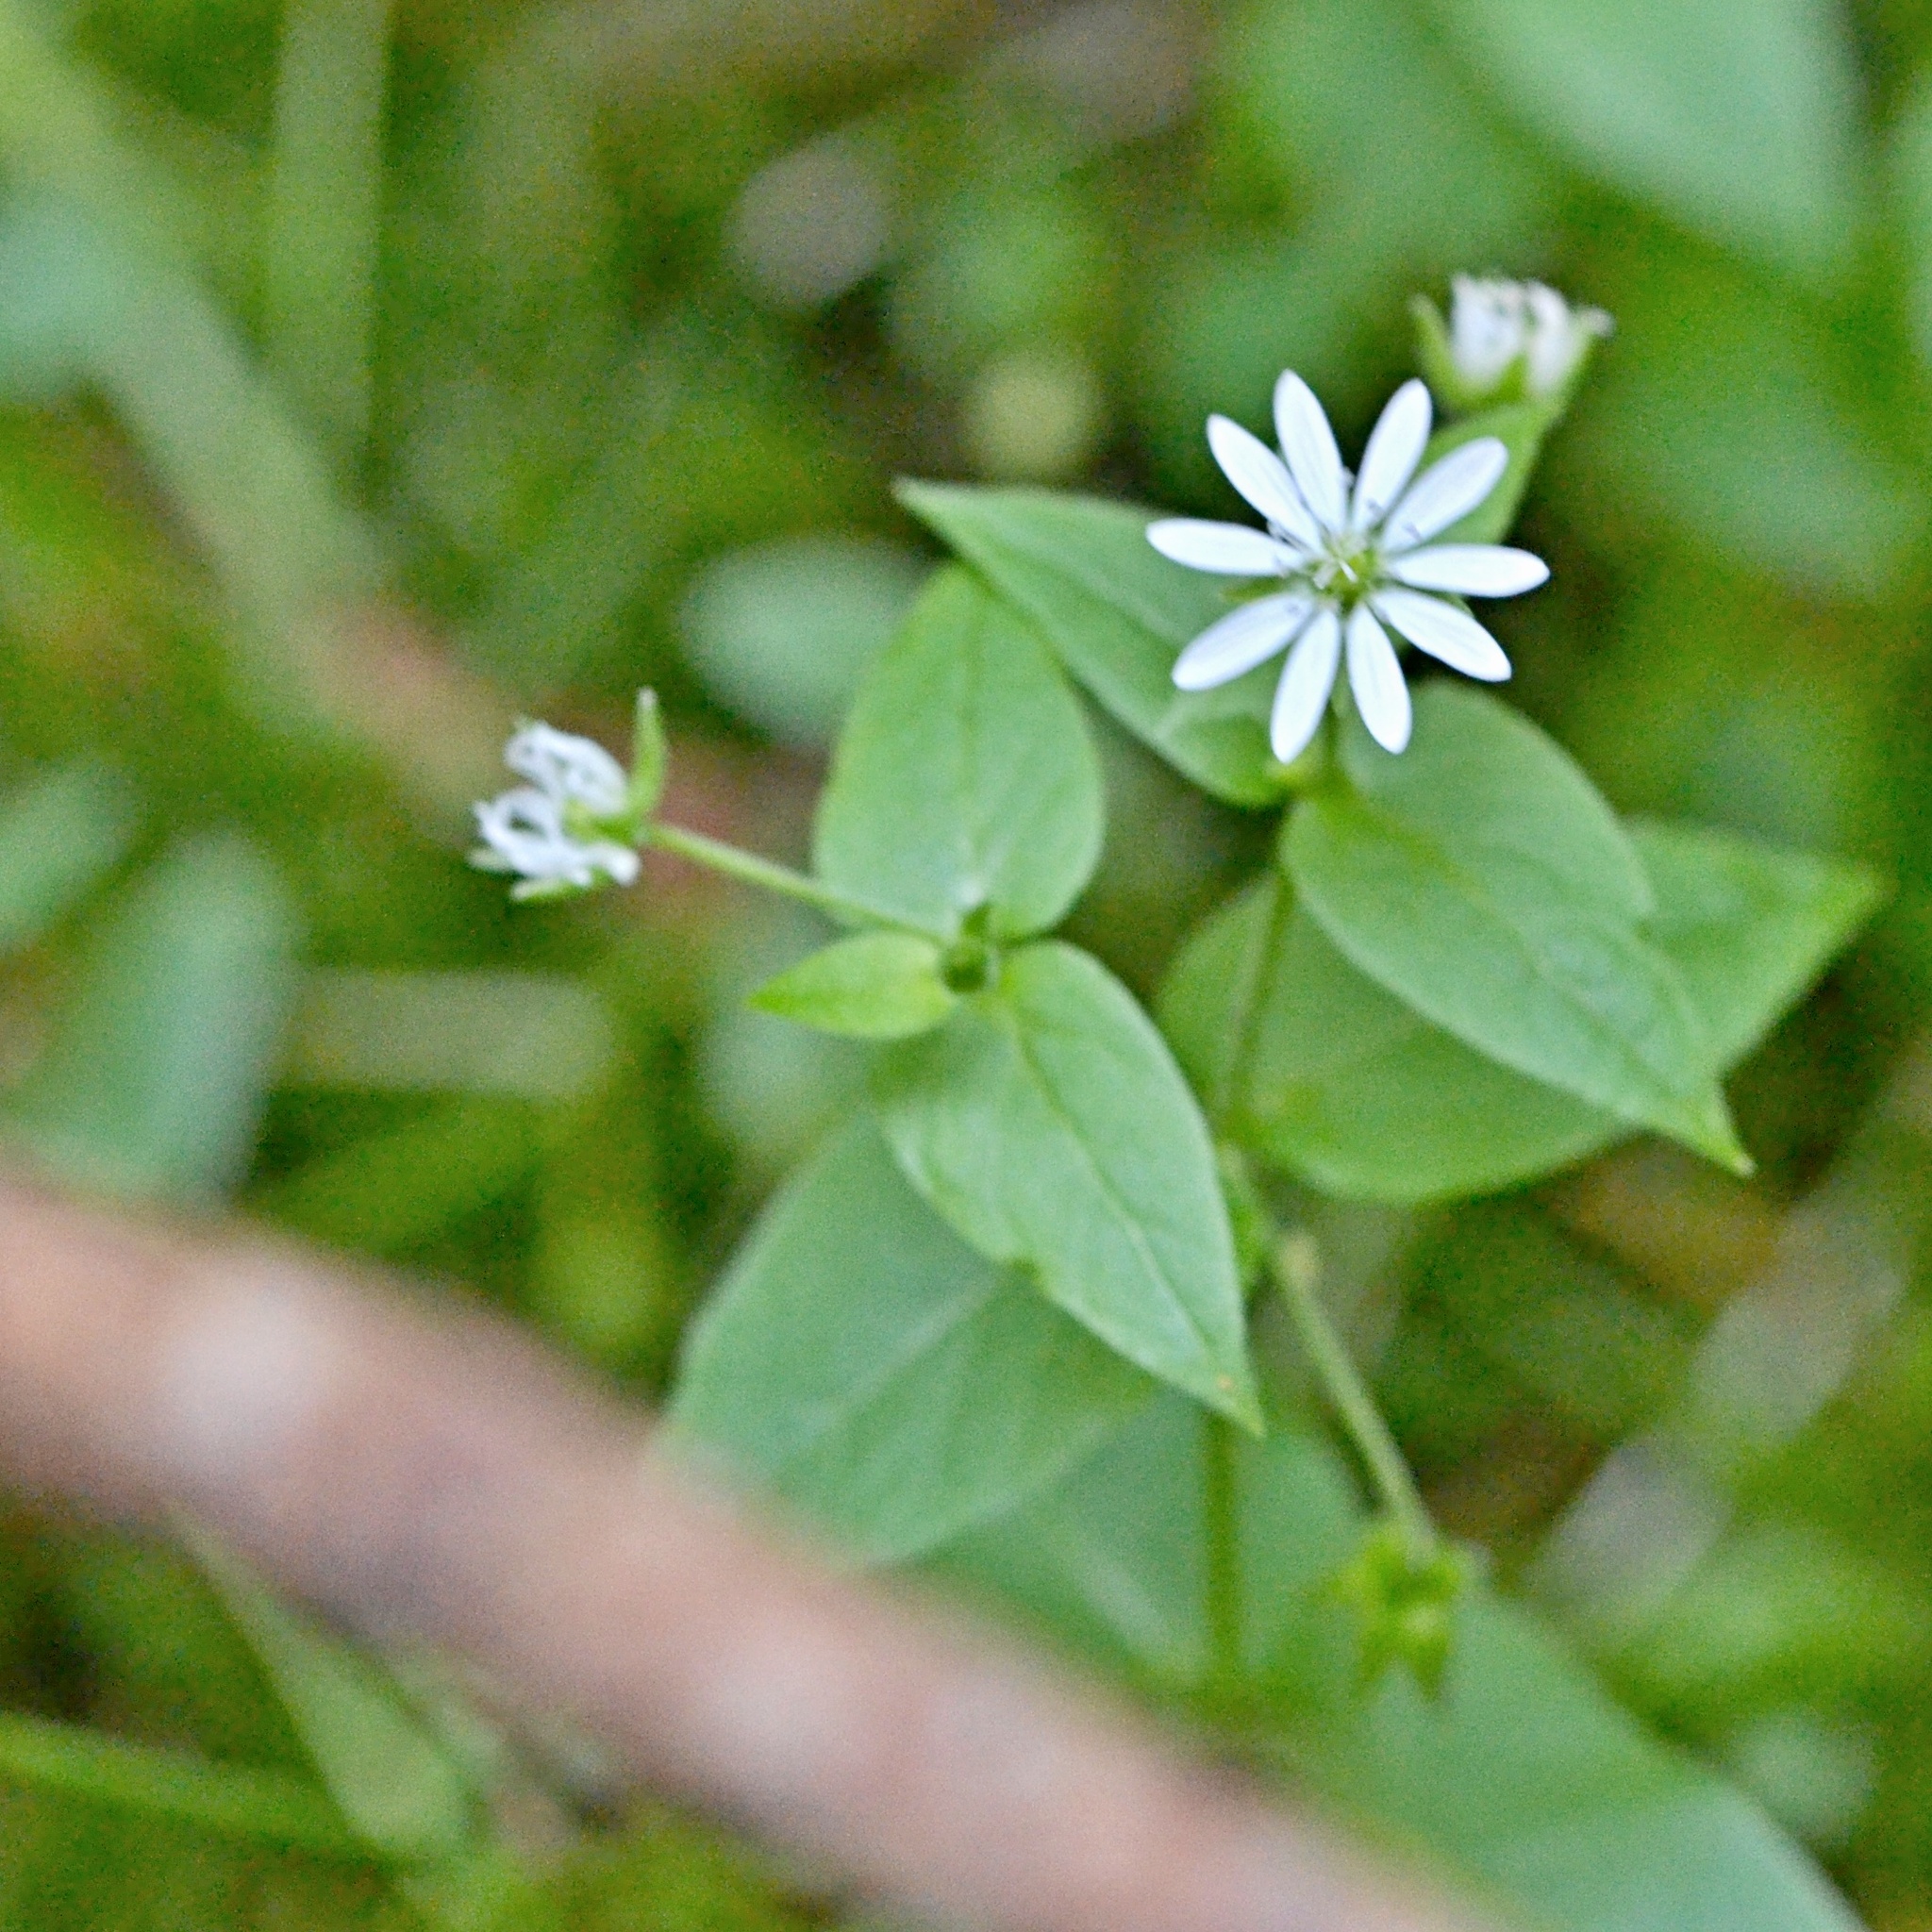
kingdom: Plantae
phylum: Tracheophyta
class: Magnoliopsida
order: Caryophyllales
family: Caryophyllaceae
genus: Stellaria
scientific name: Stellaria aquatica
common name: Water chickweed
